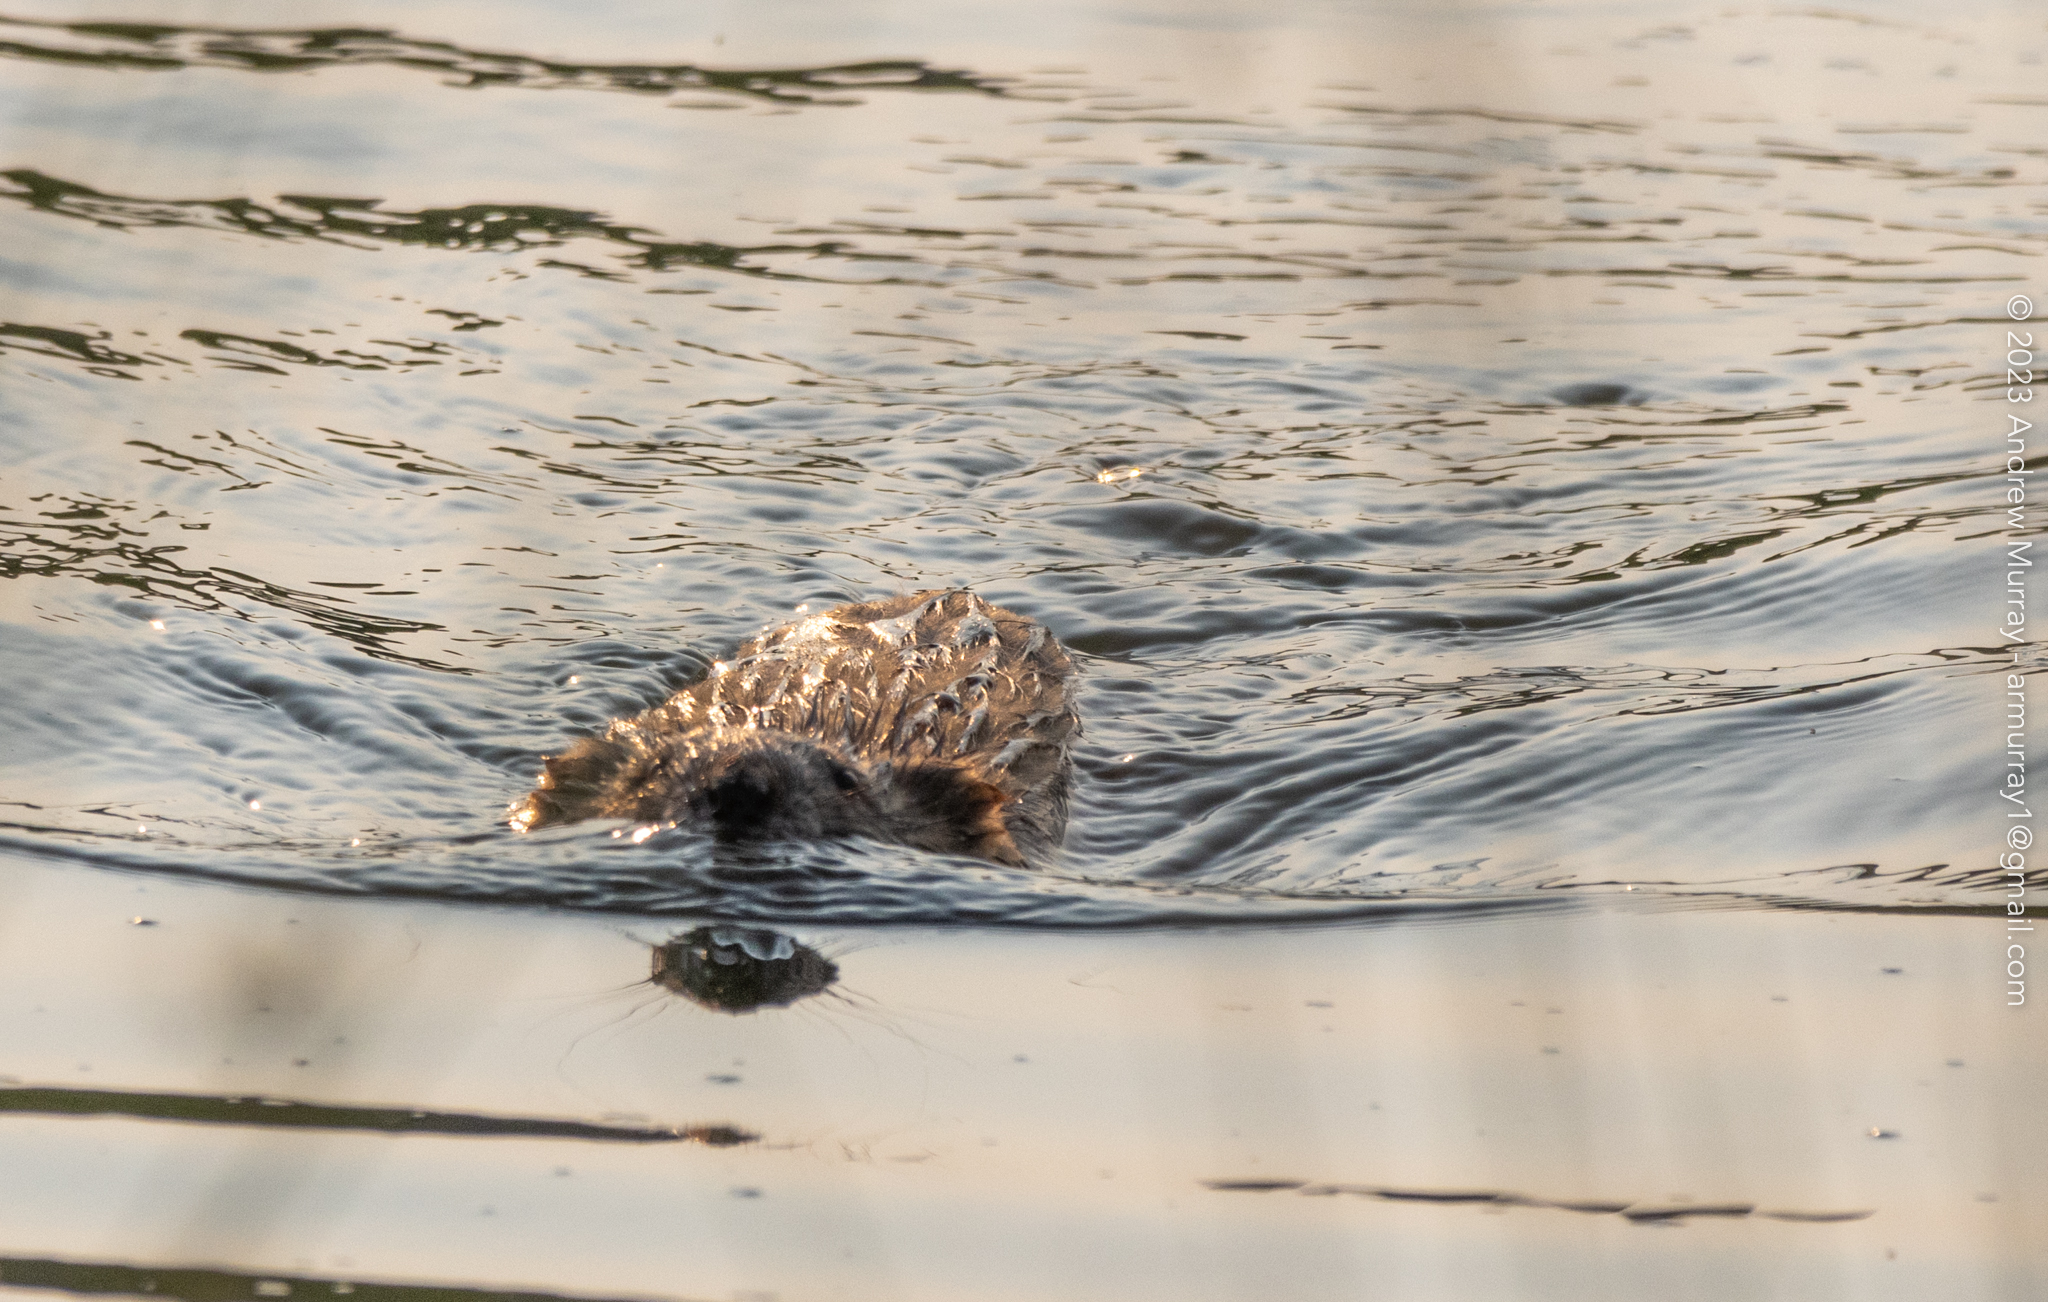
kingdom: Animalia
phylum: Chordata
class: Mammalia
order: Rodentia
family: Cricetidae
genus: Ondatra
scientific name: Ondatra zibethicus
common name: Muskrat
